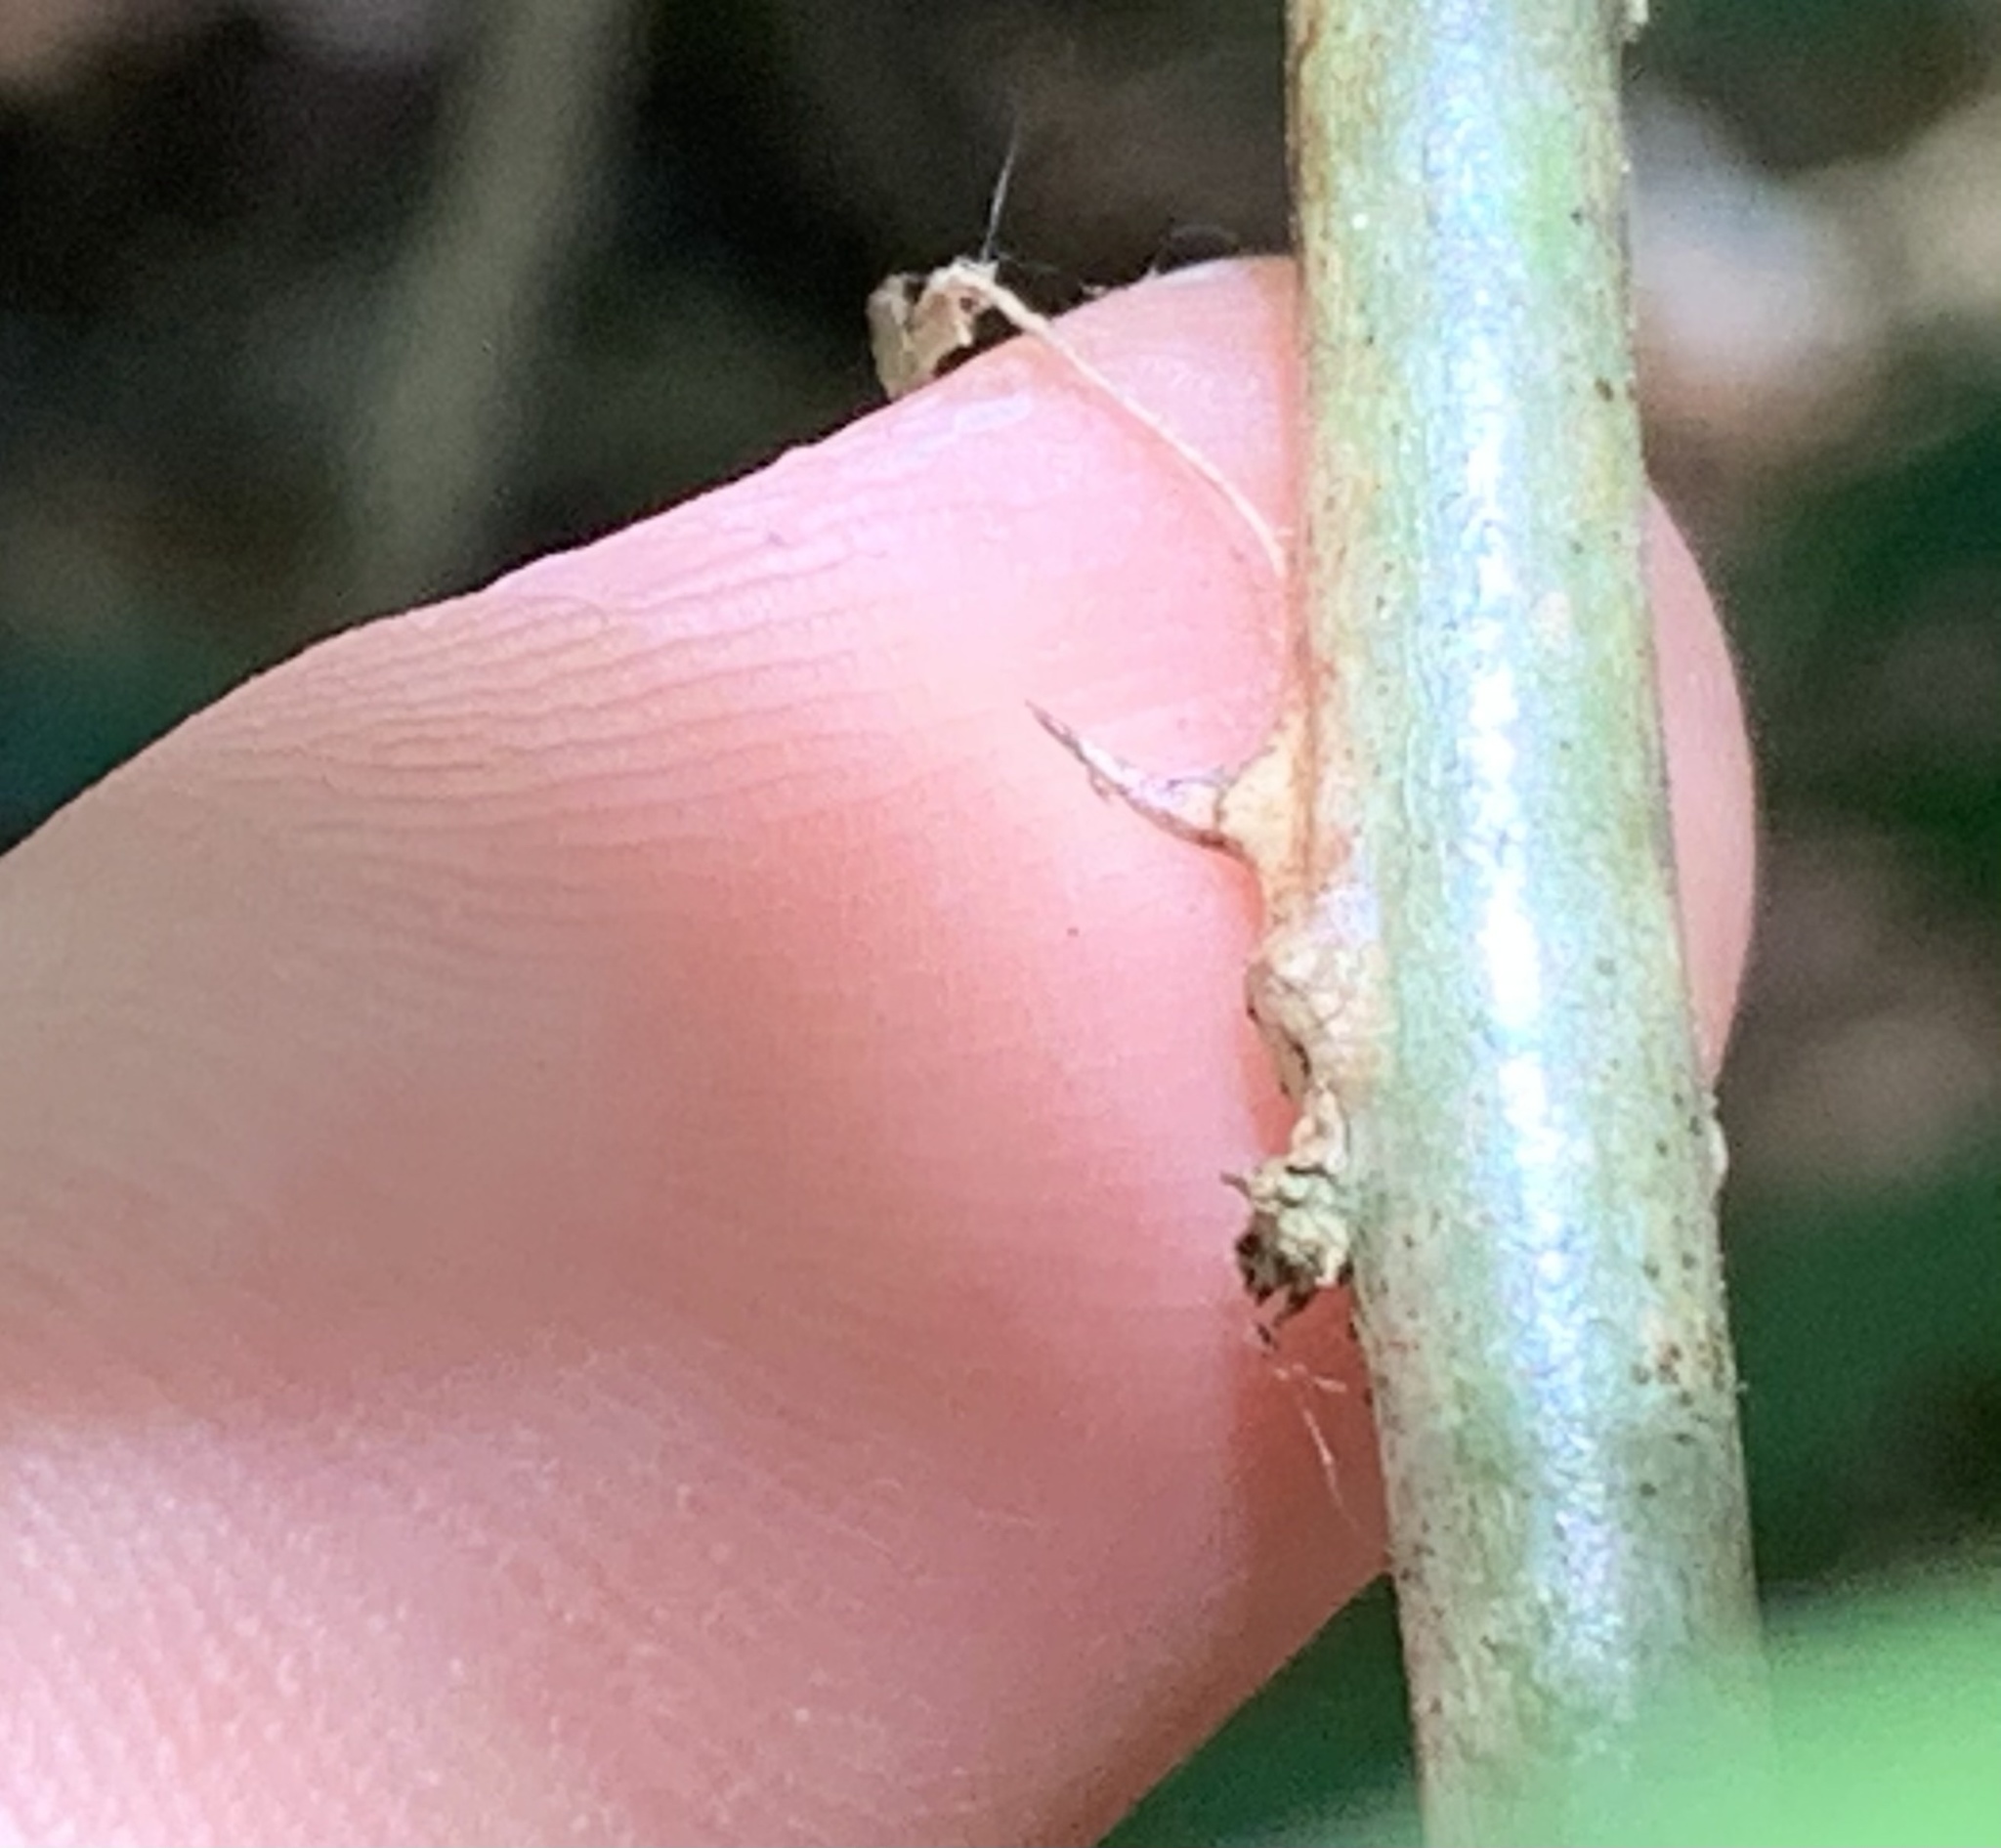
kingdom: Plantae
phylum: Tracheophyta
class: Magnoliopsida
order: Fabales
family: Fabaceae
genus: Erythrina
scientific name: Erythrina herbacea
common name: Coral-bean
